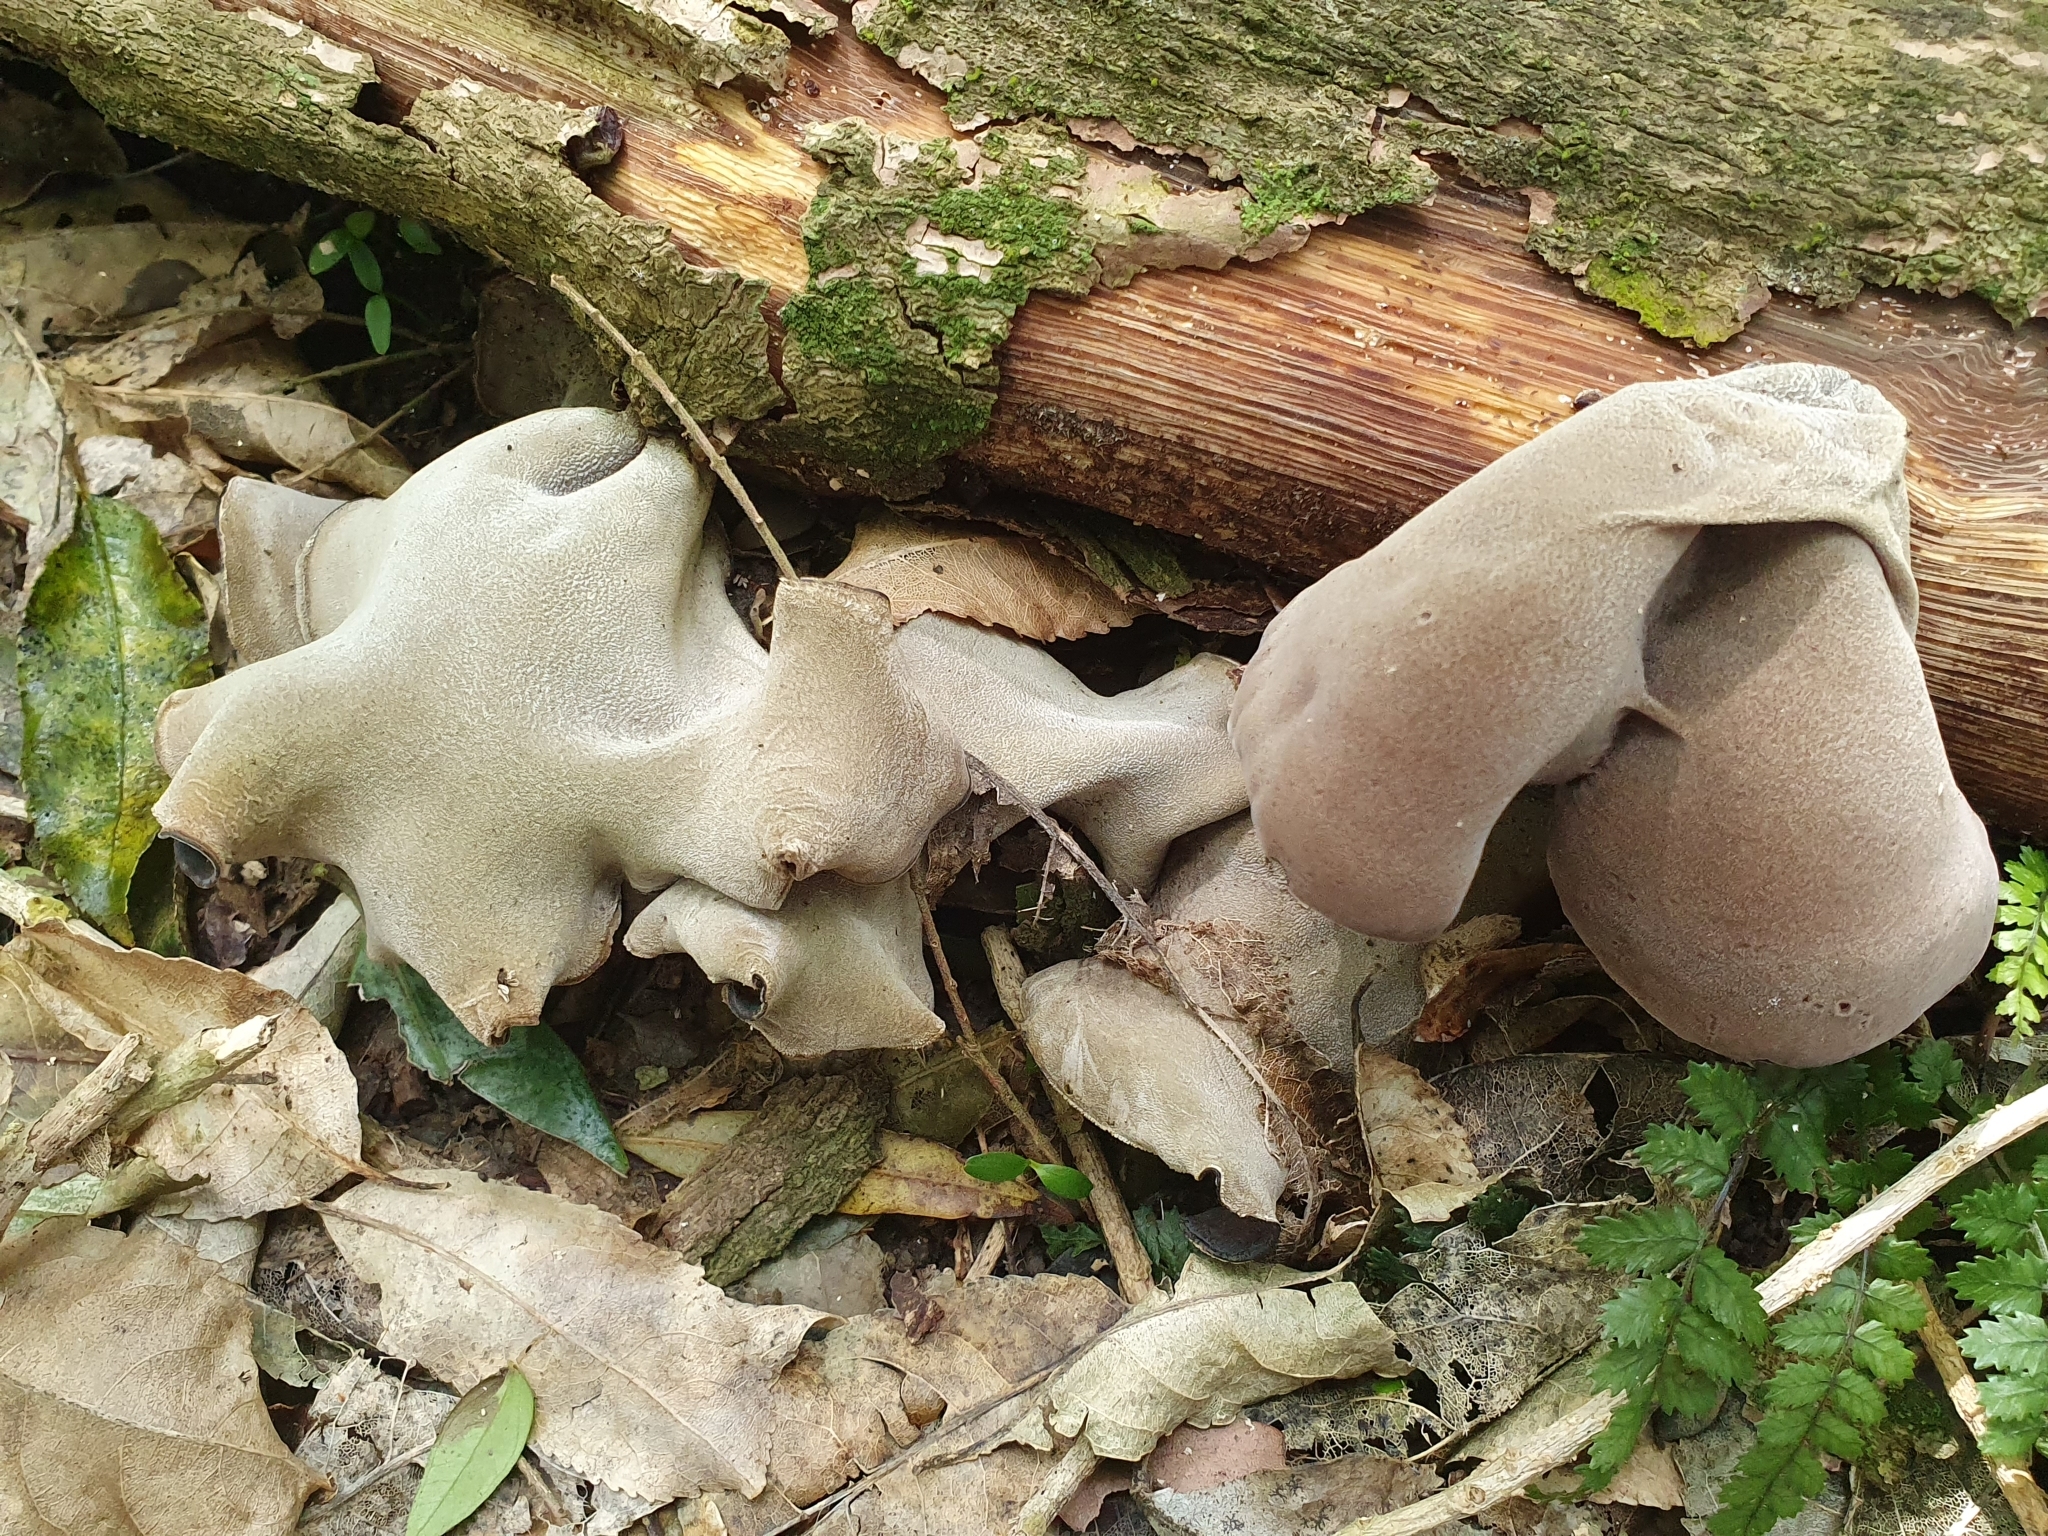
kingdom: Fungi
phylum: Basidiomycota
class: Agaricomycetes
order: Auriculariales
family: Auriculariaceae
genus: Auricularia
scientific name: Auricularia cornea
